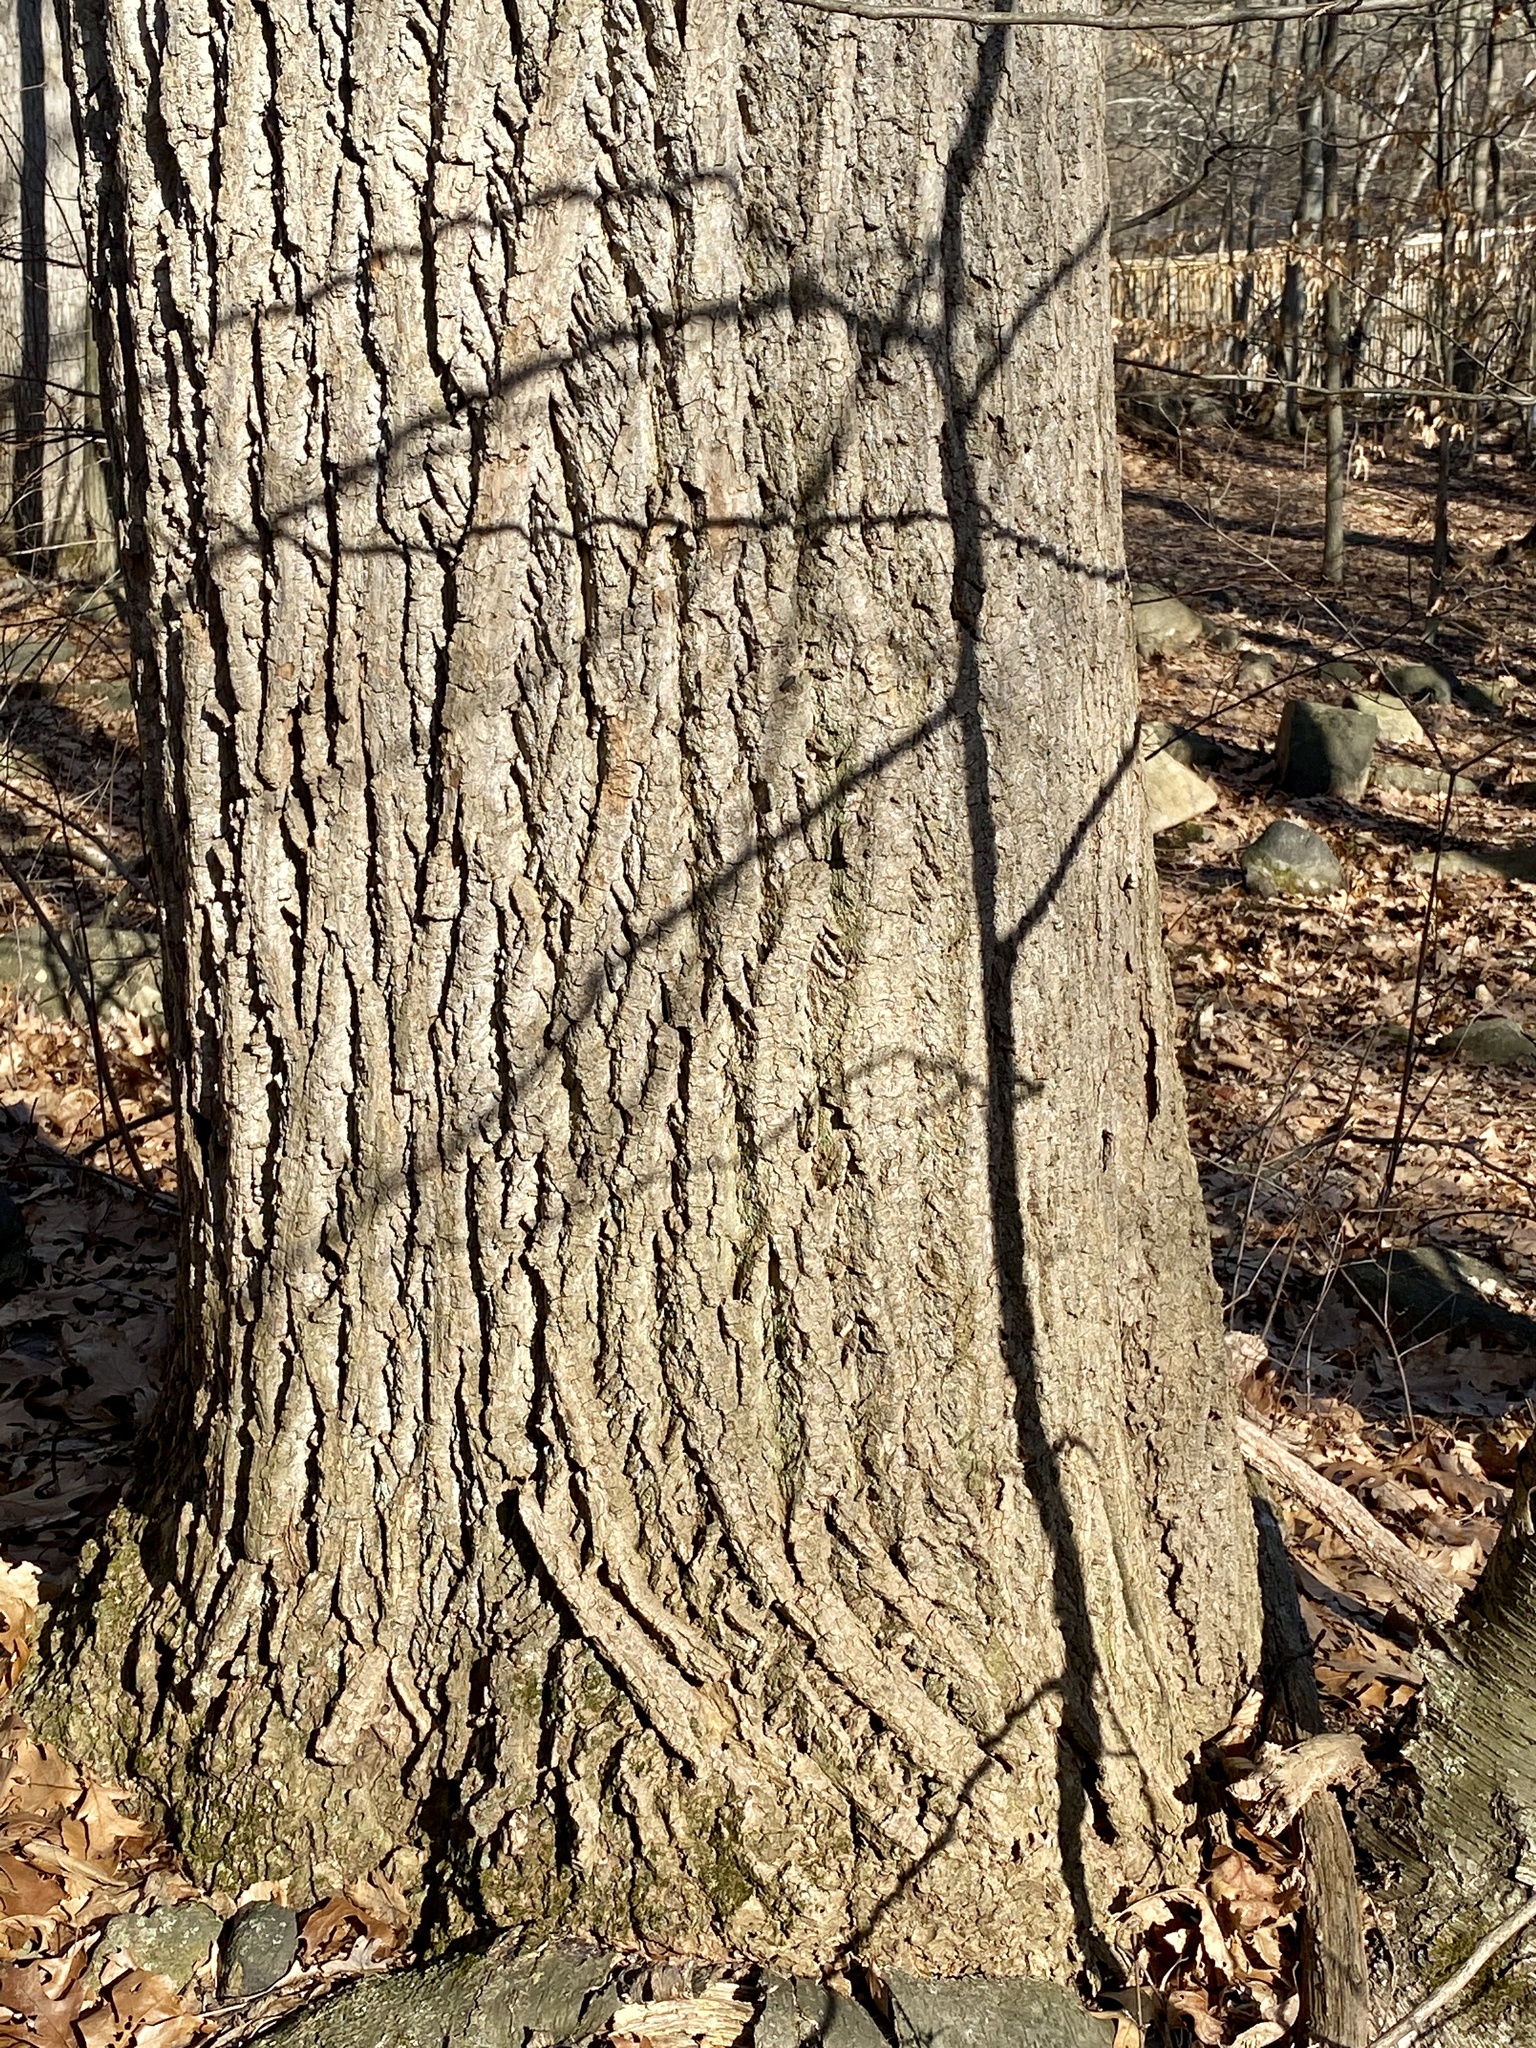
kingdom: Plantae
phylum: Tracheophyta
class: Magnoliopsida
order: Magnoliales
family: Magnoliaceae
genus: Liriodendron
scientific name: Liriodendron tulipifera
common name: Tulip tree
